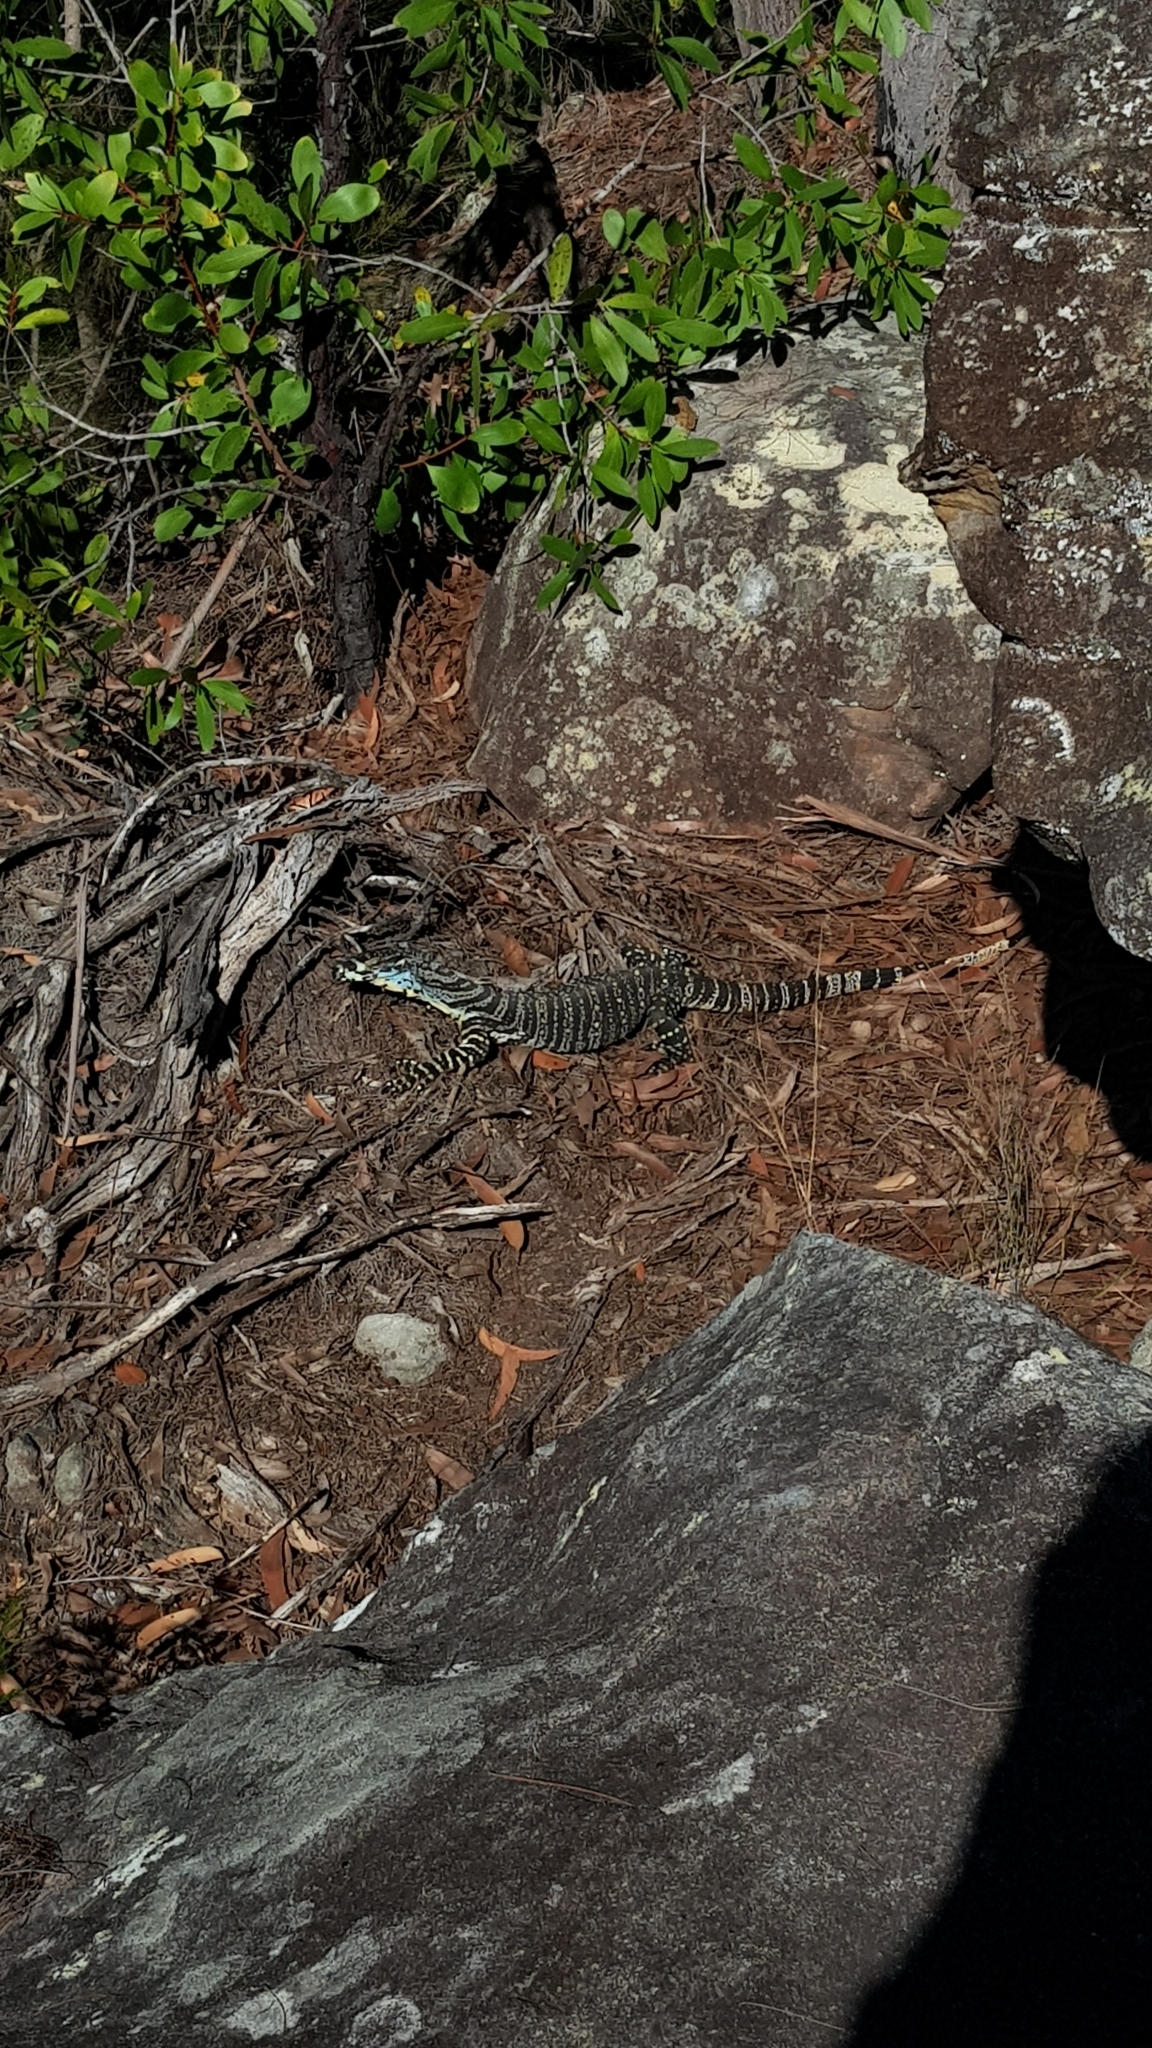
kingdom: Animalia
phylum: Chordata
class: Squamata
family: Varanidae
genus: Varanus
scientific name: Varanus varius
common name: Lace monitor
